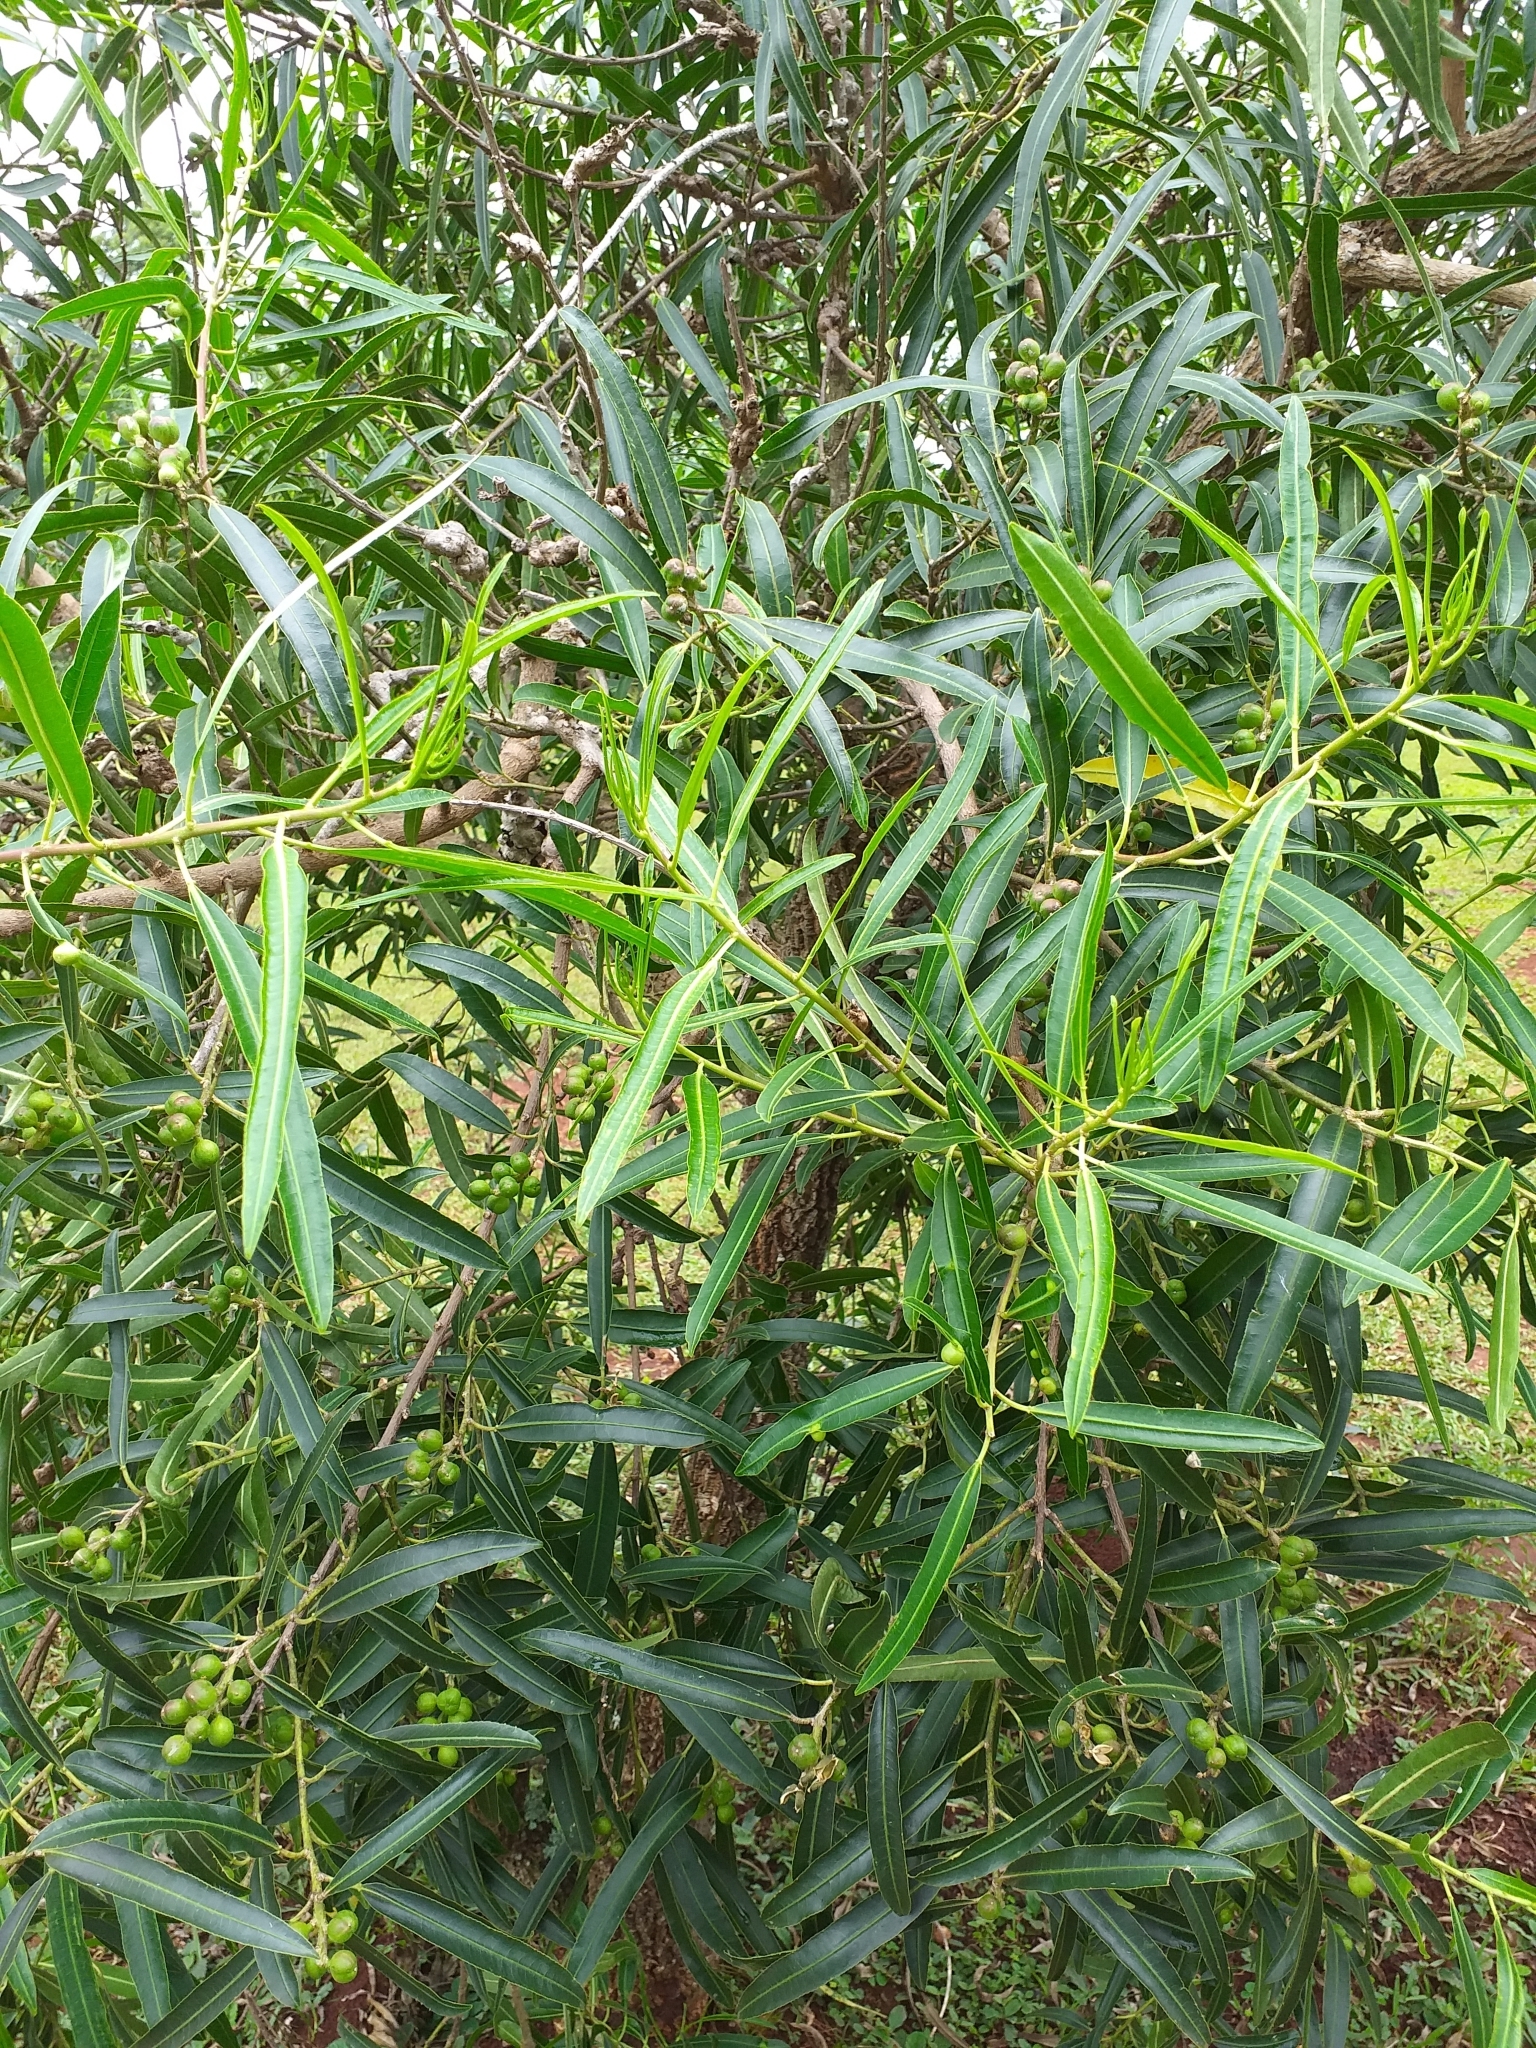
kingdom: Plantae
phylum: Tracheophyta
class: Magnoliopsida
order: Malpighiales
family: Euphorbiaceae
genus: Sapium
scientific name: Sapium haematospermum
